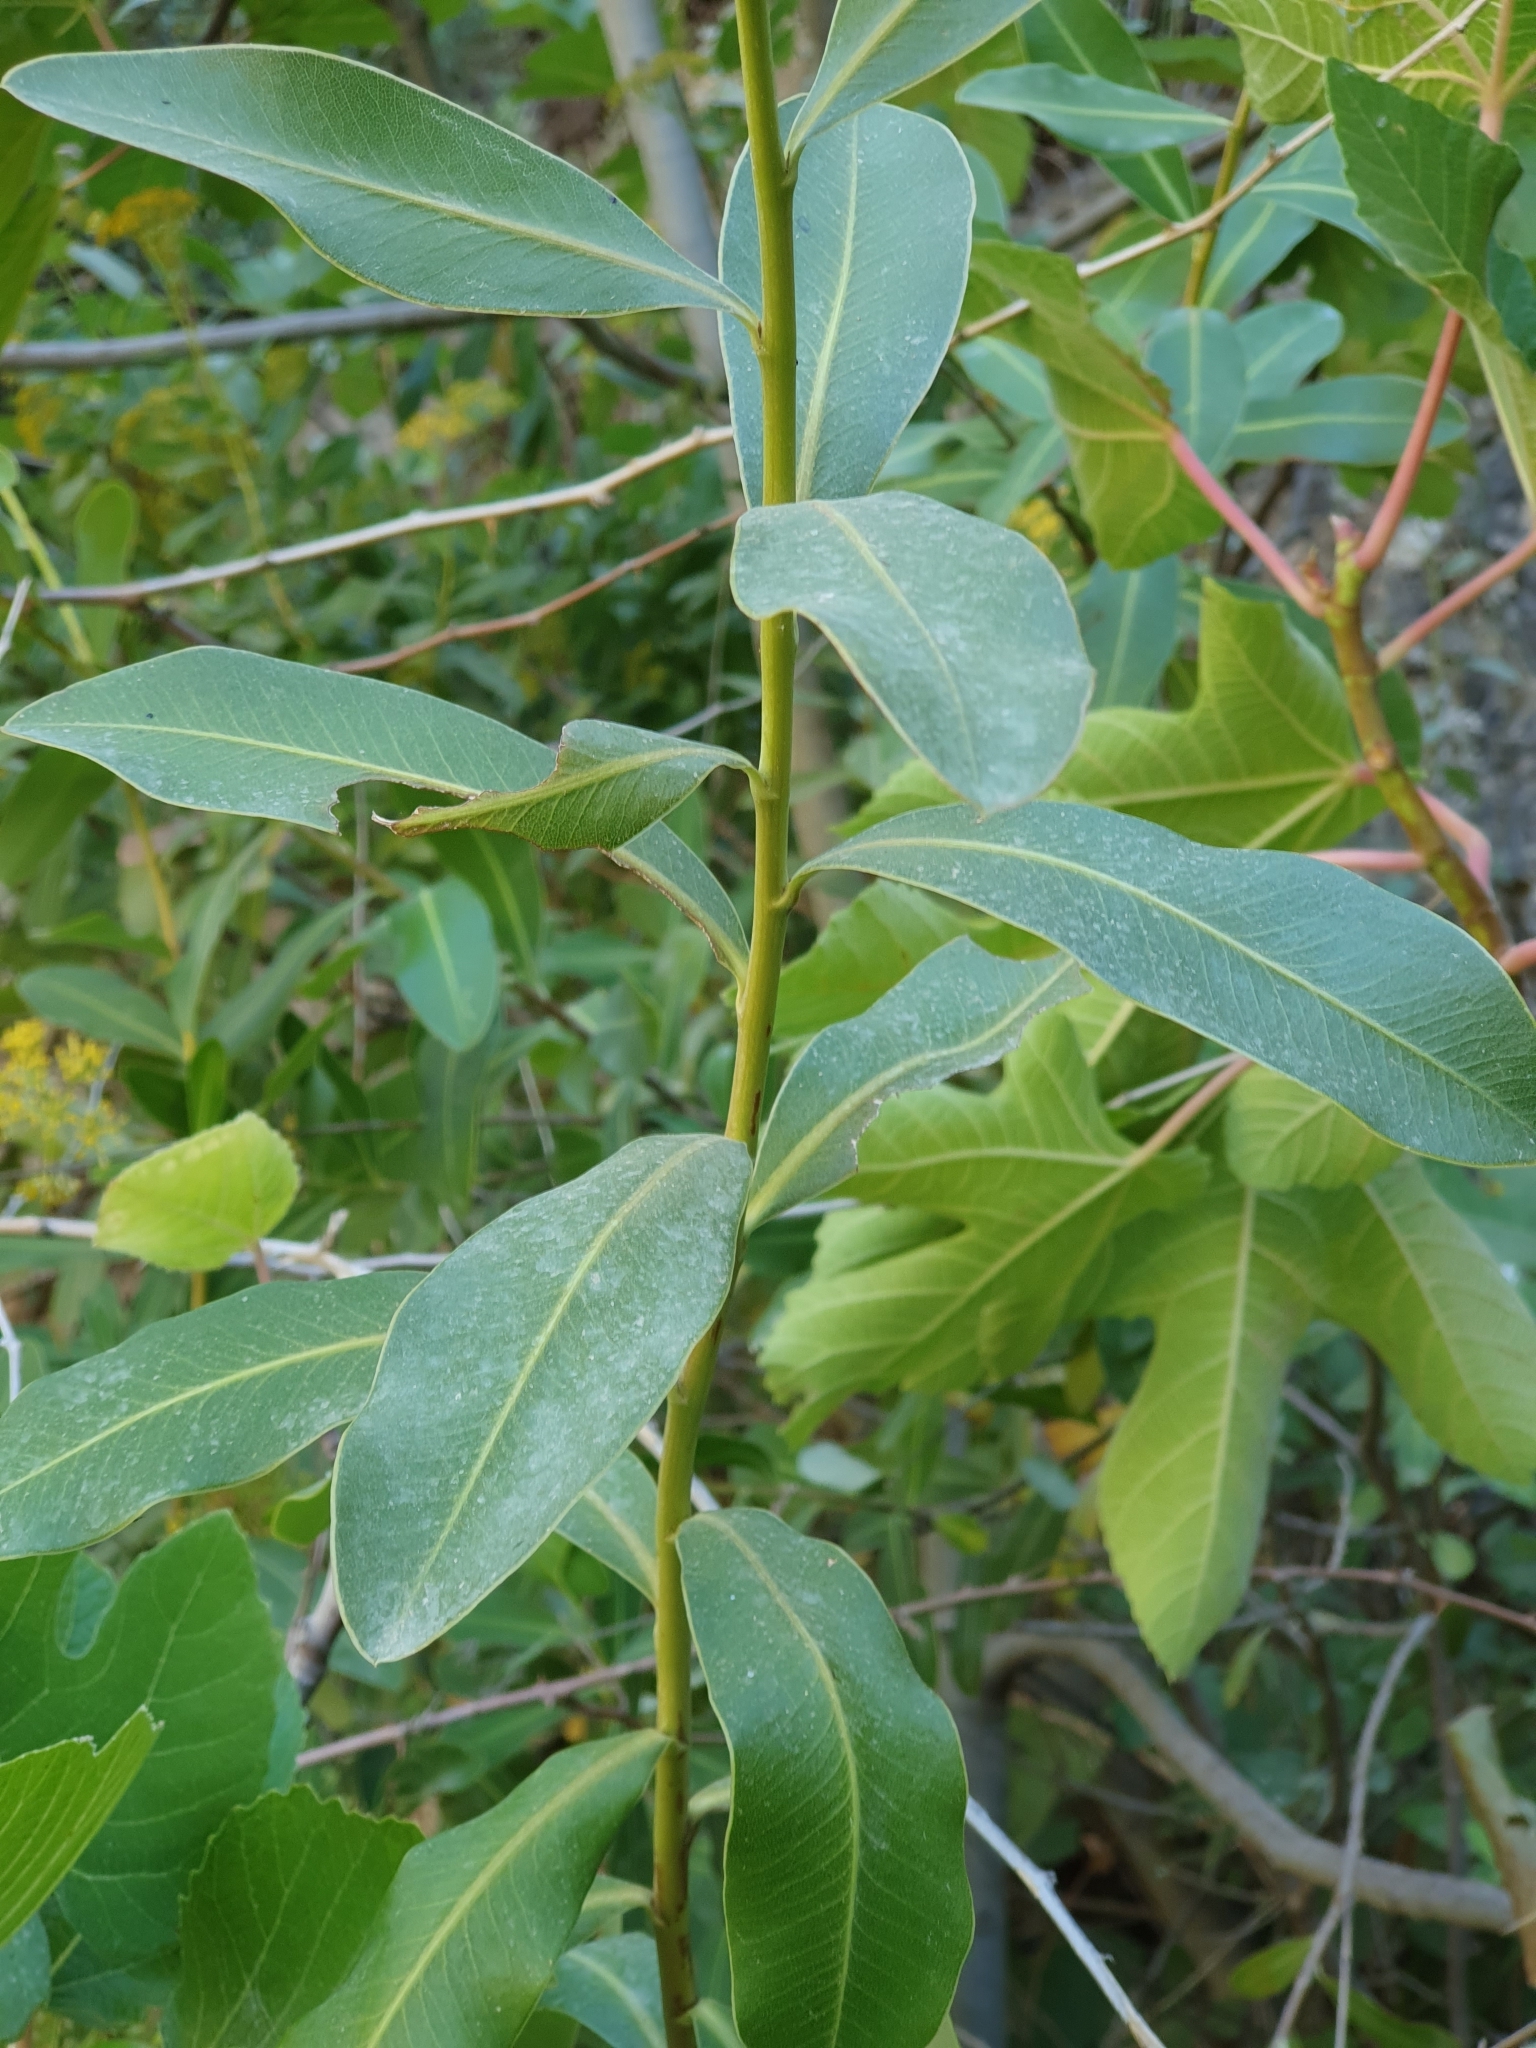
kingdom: Plantae
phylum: Tracheophyta
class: Magnoliopsida
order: Apiales
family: Apiaceae
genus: Bupleurum
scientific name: Bupleurum fruticosum
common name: Shrubby hare's-ear
